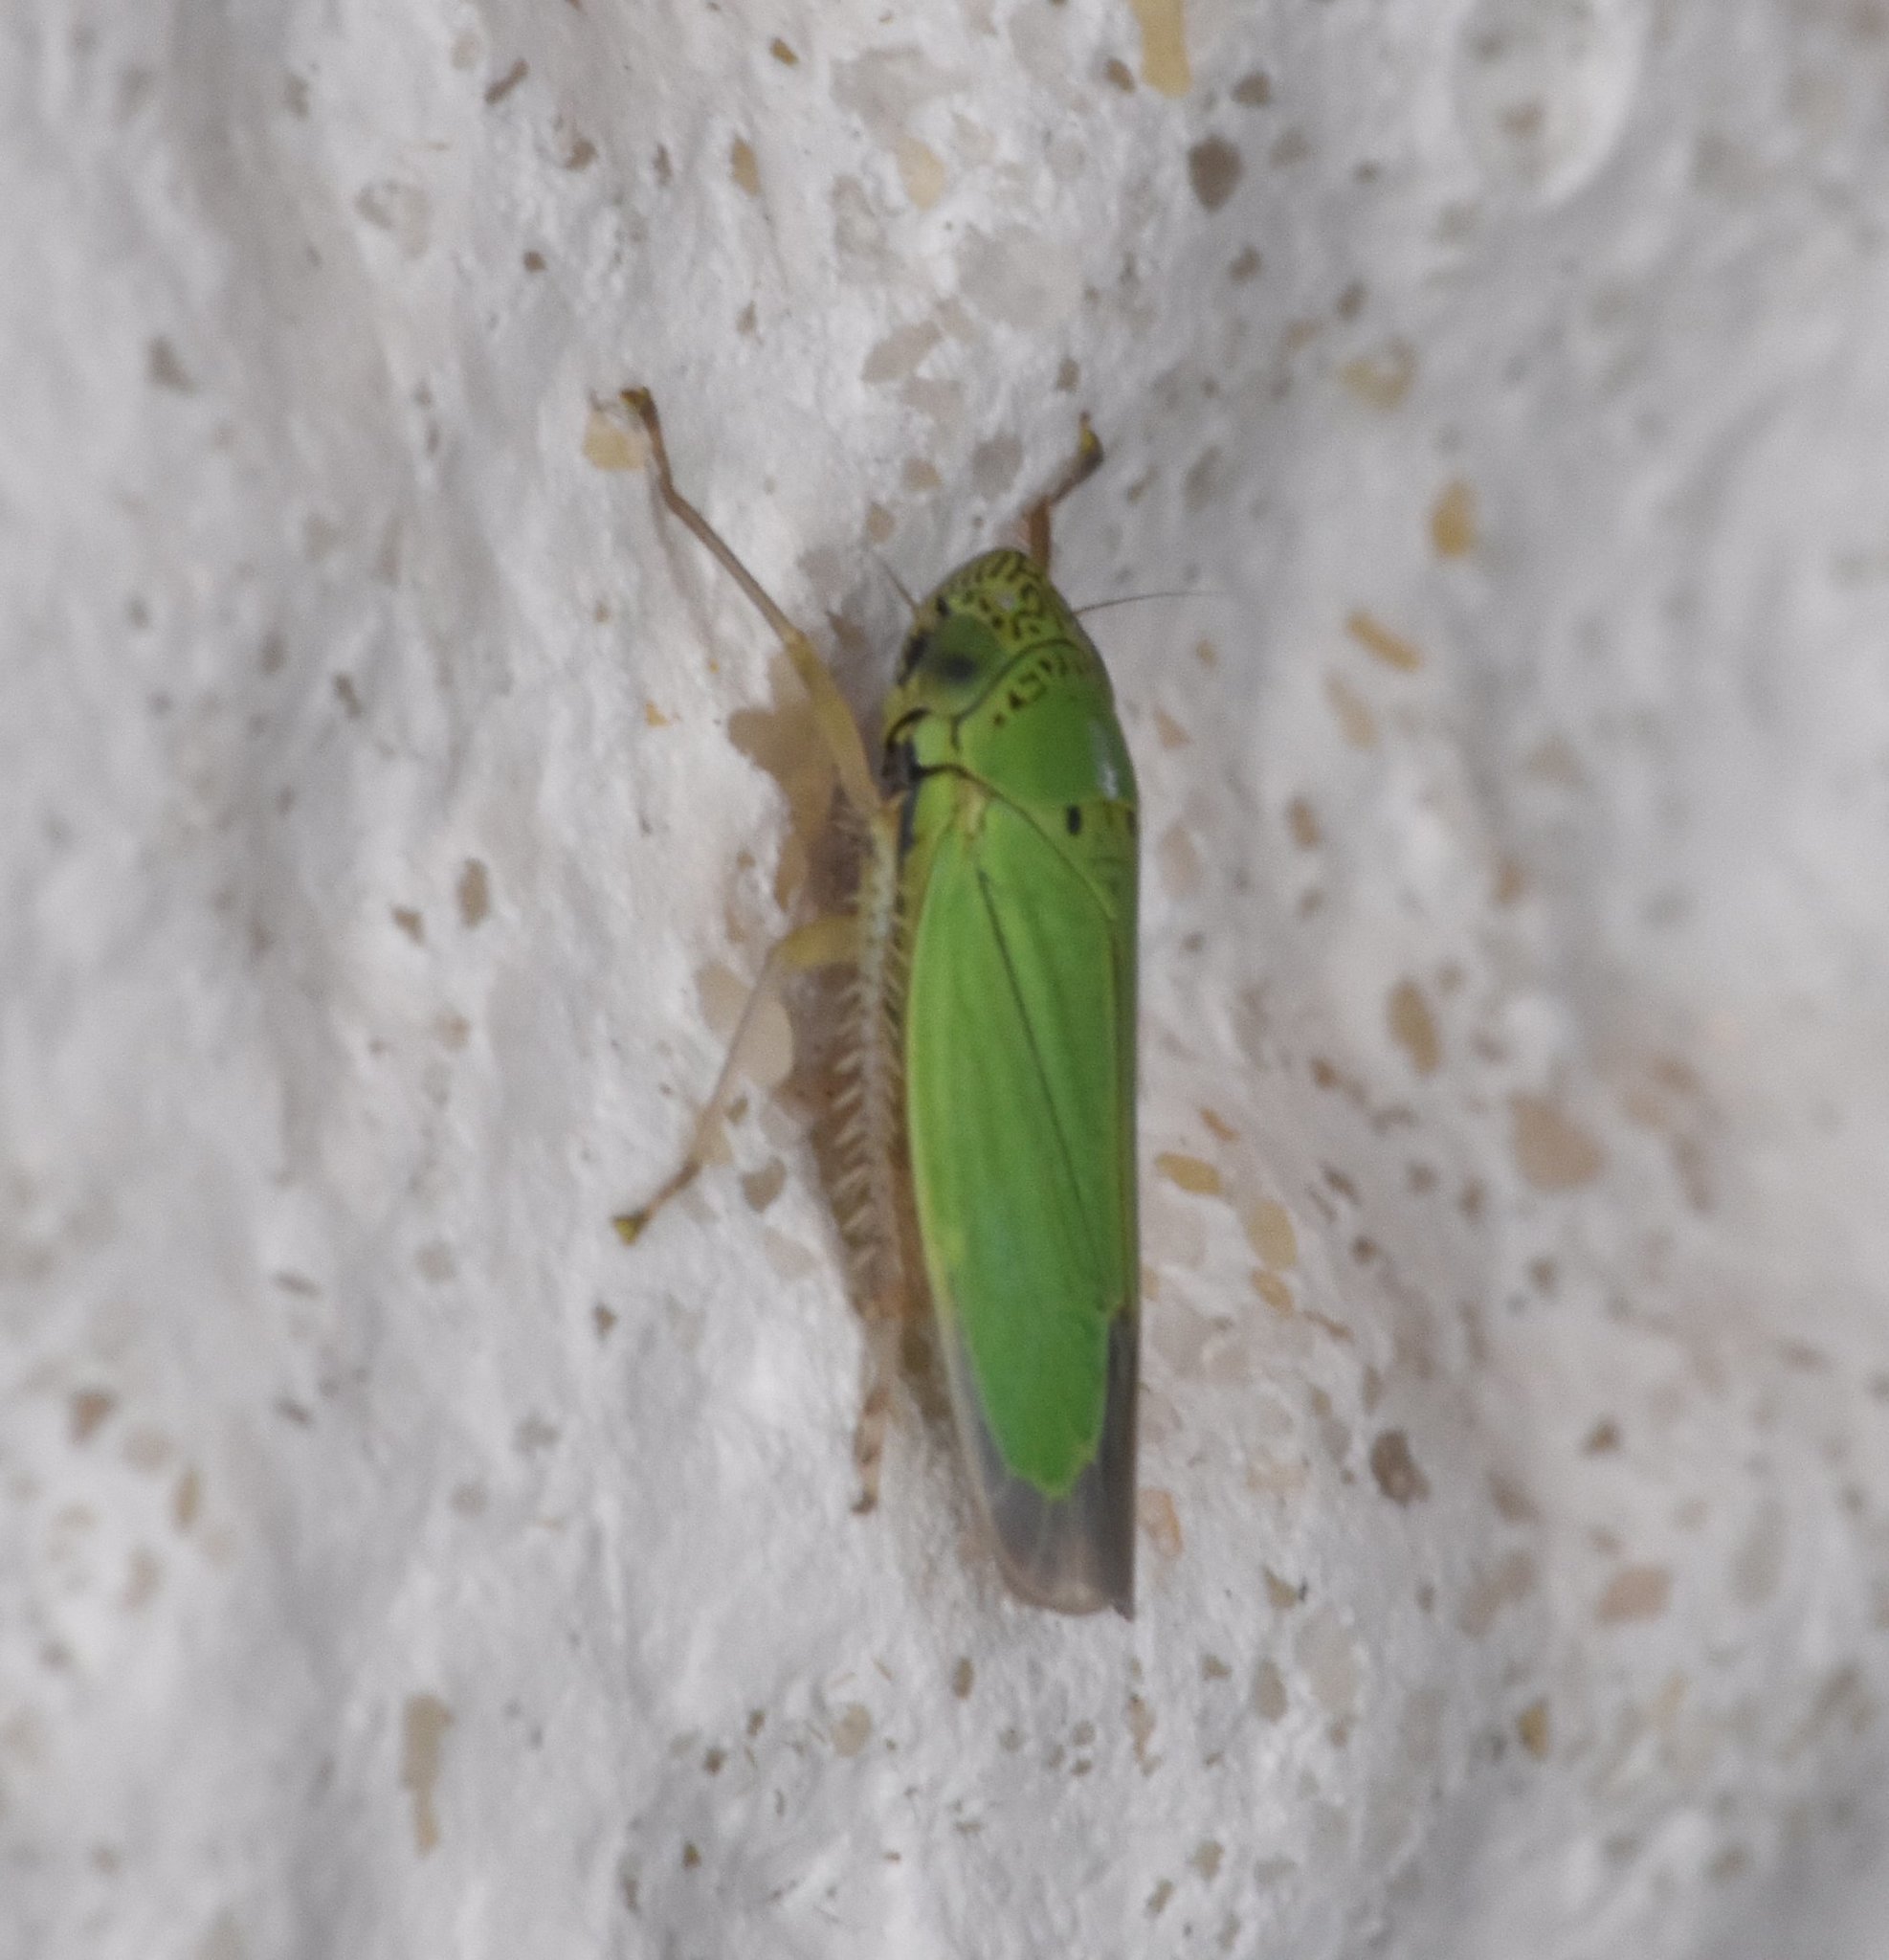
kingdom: Animalia
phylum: Arthropoda
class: Insecta
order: Hemiptera
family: Cicadellidae
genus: Hortensia
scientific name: Hortensia similis
